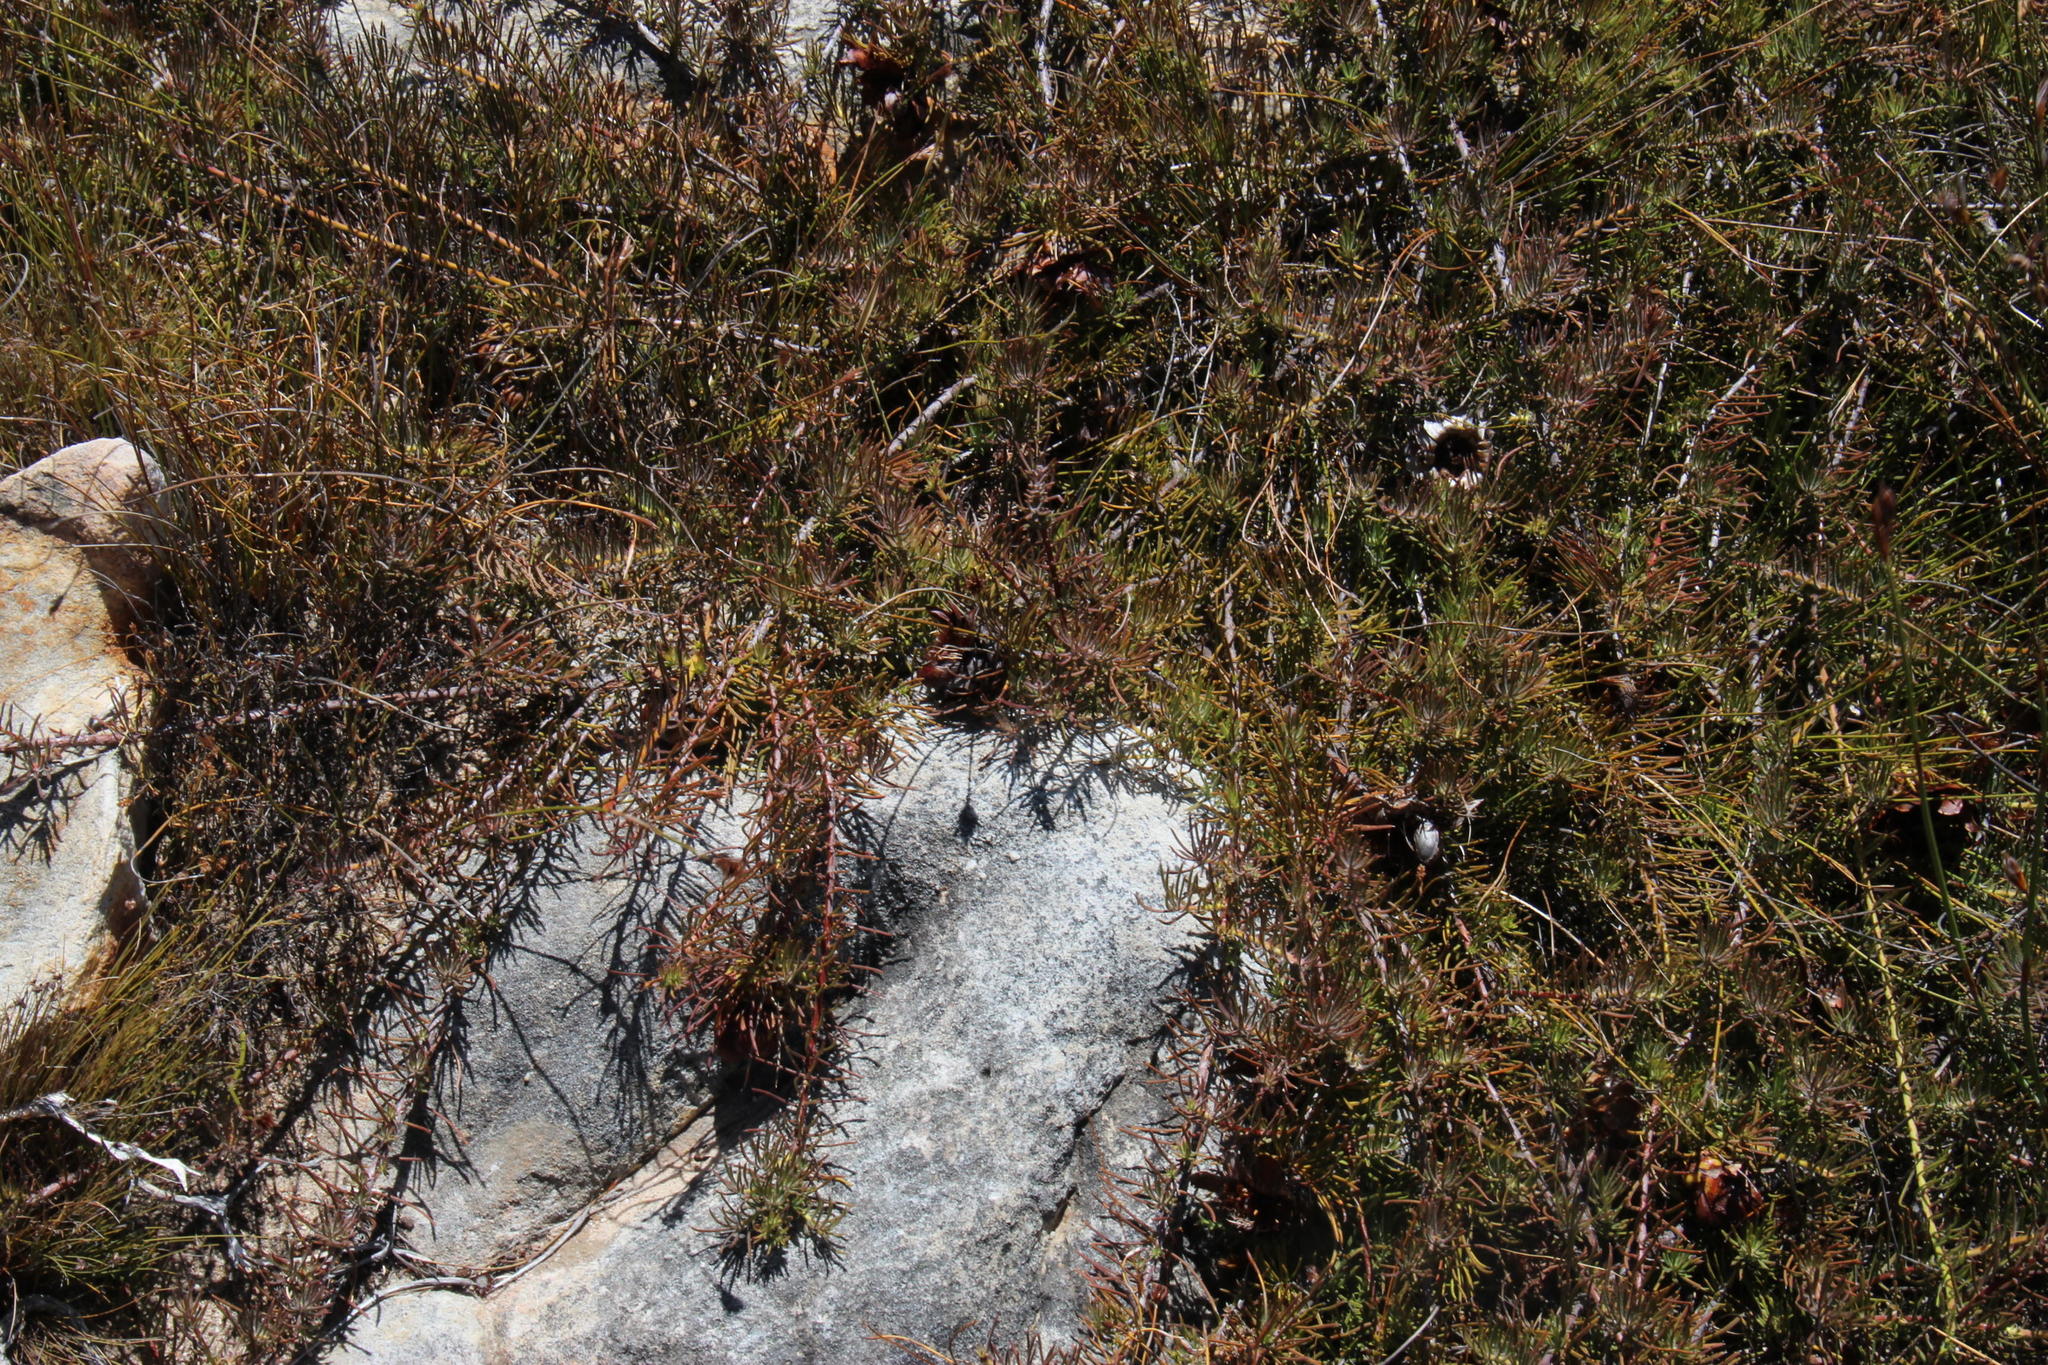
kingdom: Plantae
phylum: Tracheophyta
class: Magnoliopsida
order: Proteales
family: Proteaceae
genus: Protea
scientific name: Protea witzenbergiana
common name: Swan sugarbush
